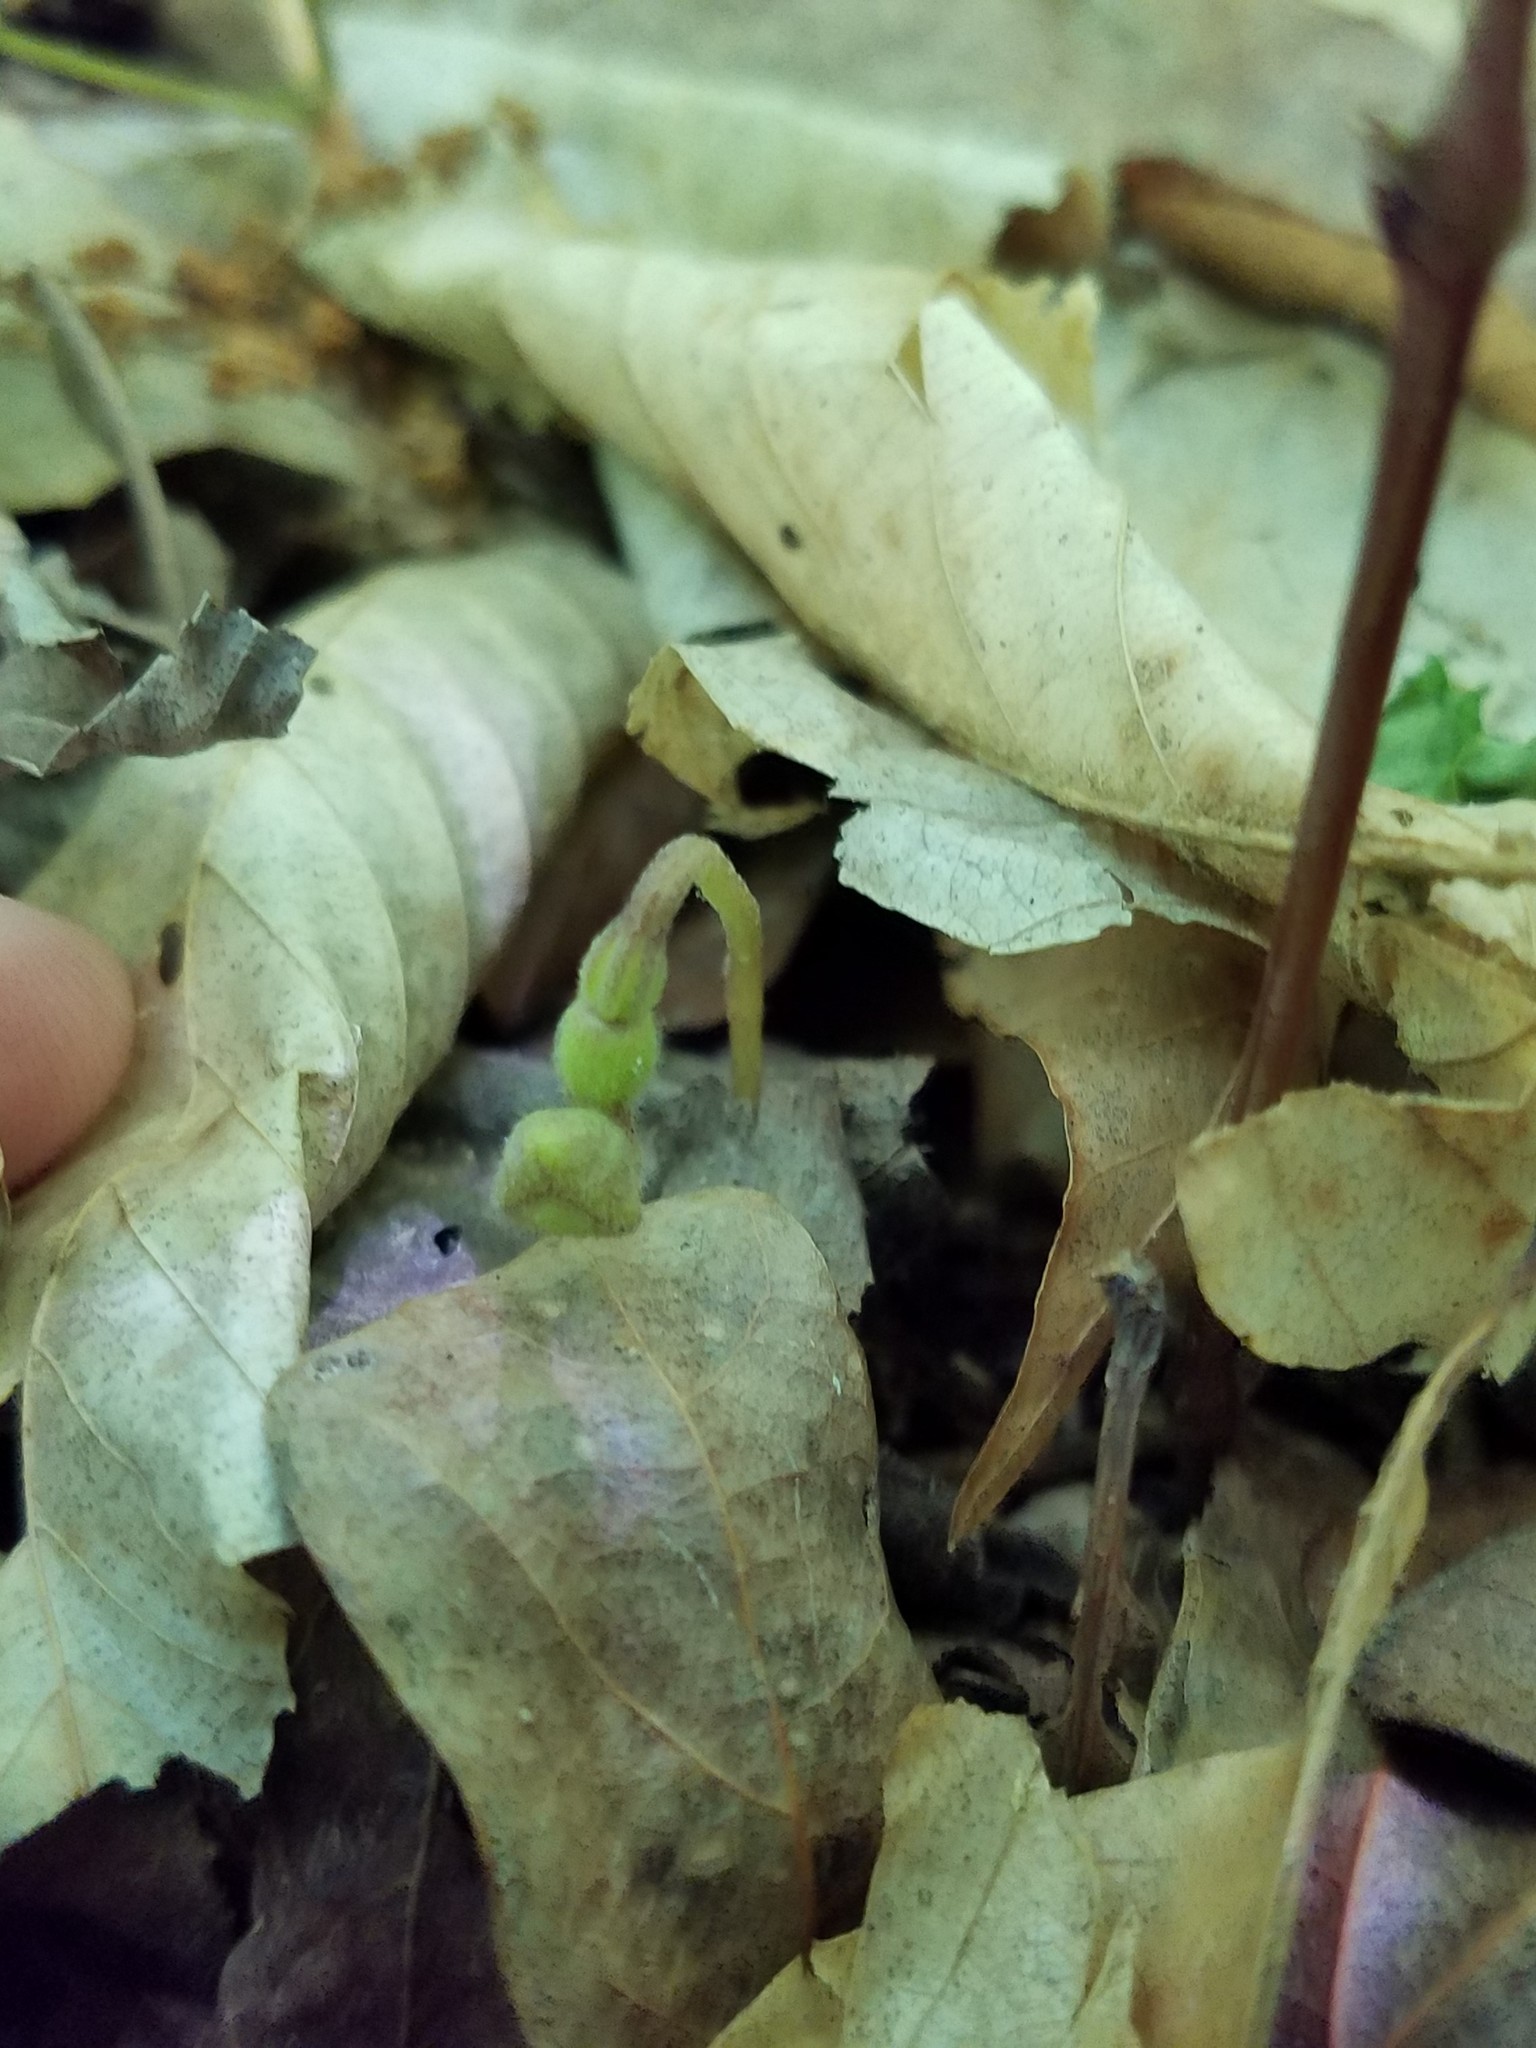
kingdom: Plantae
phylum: Tracheophyta
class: Magnoliopsida
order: Piperales
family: Aristolochiaceae
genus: Endodeca
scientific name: Endodeca serpentaria
